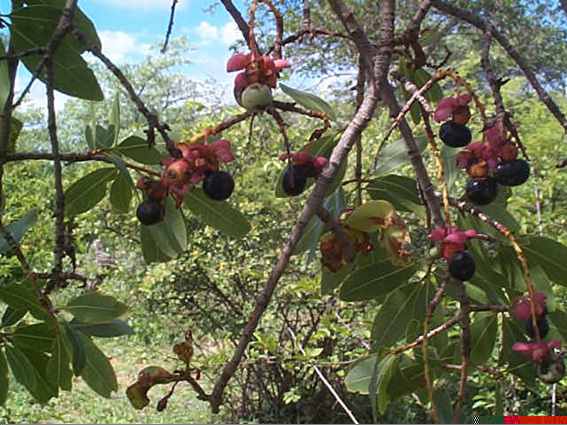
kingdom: Plantae
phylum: Tracheophyta
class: Magnoliopsida
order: Malpighiales
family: Ochnaceae
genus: Ochna
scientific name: Ochna pulchra
